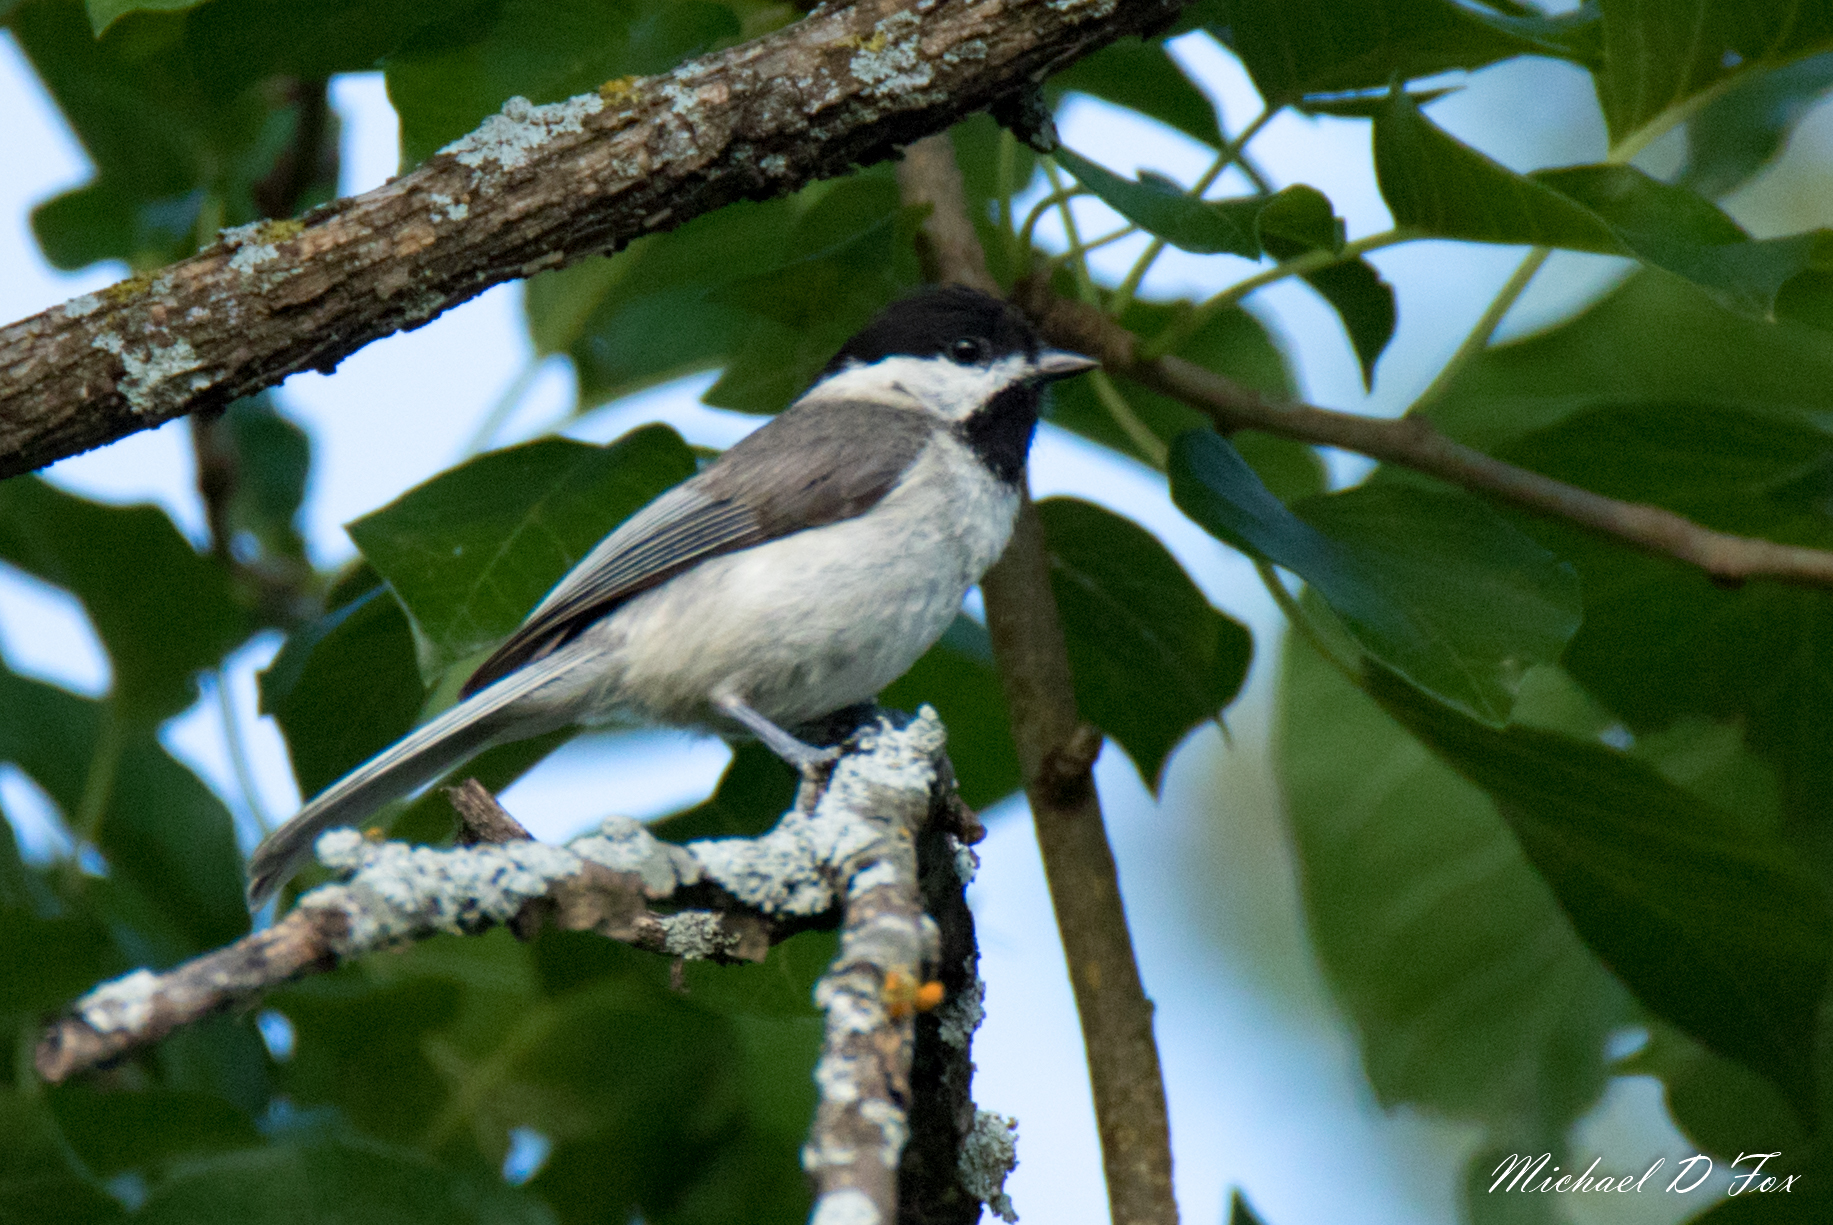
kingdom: Animalia
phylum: Chordata
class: Aves
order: Passeriformes
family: Paridae
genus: Poecile
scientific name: Poecile carolinensis
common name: Carolina chickadee
